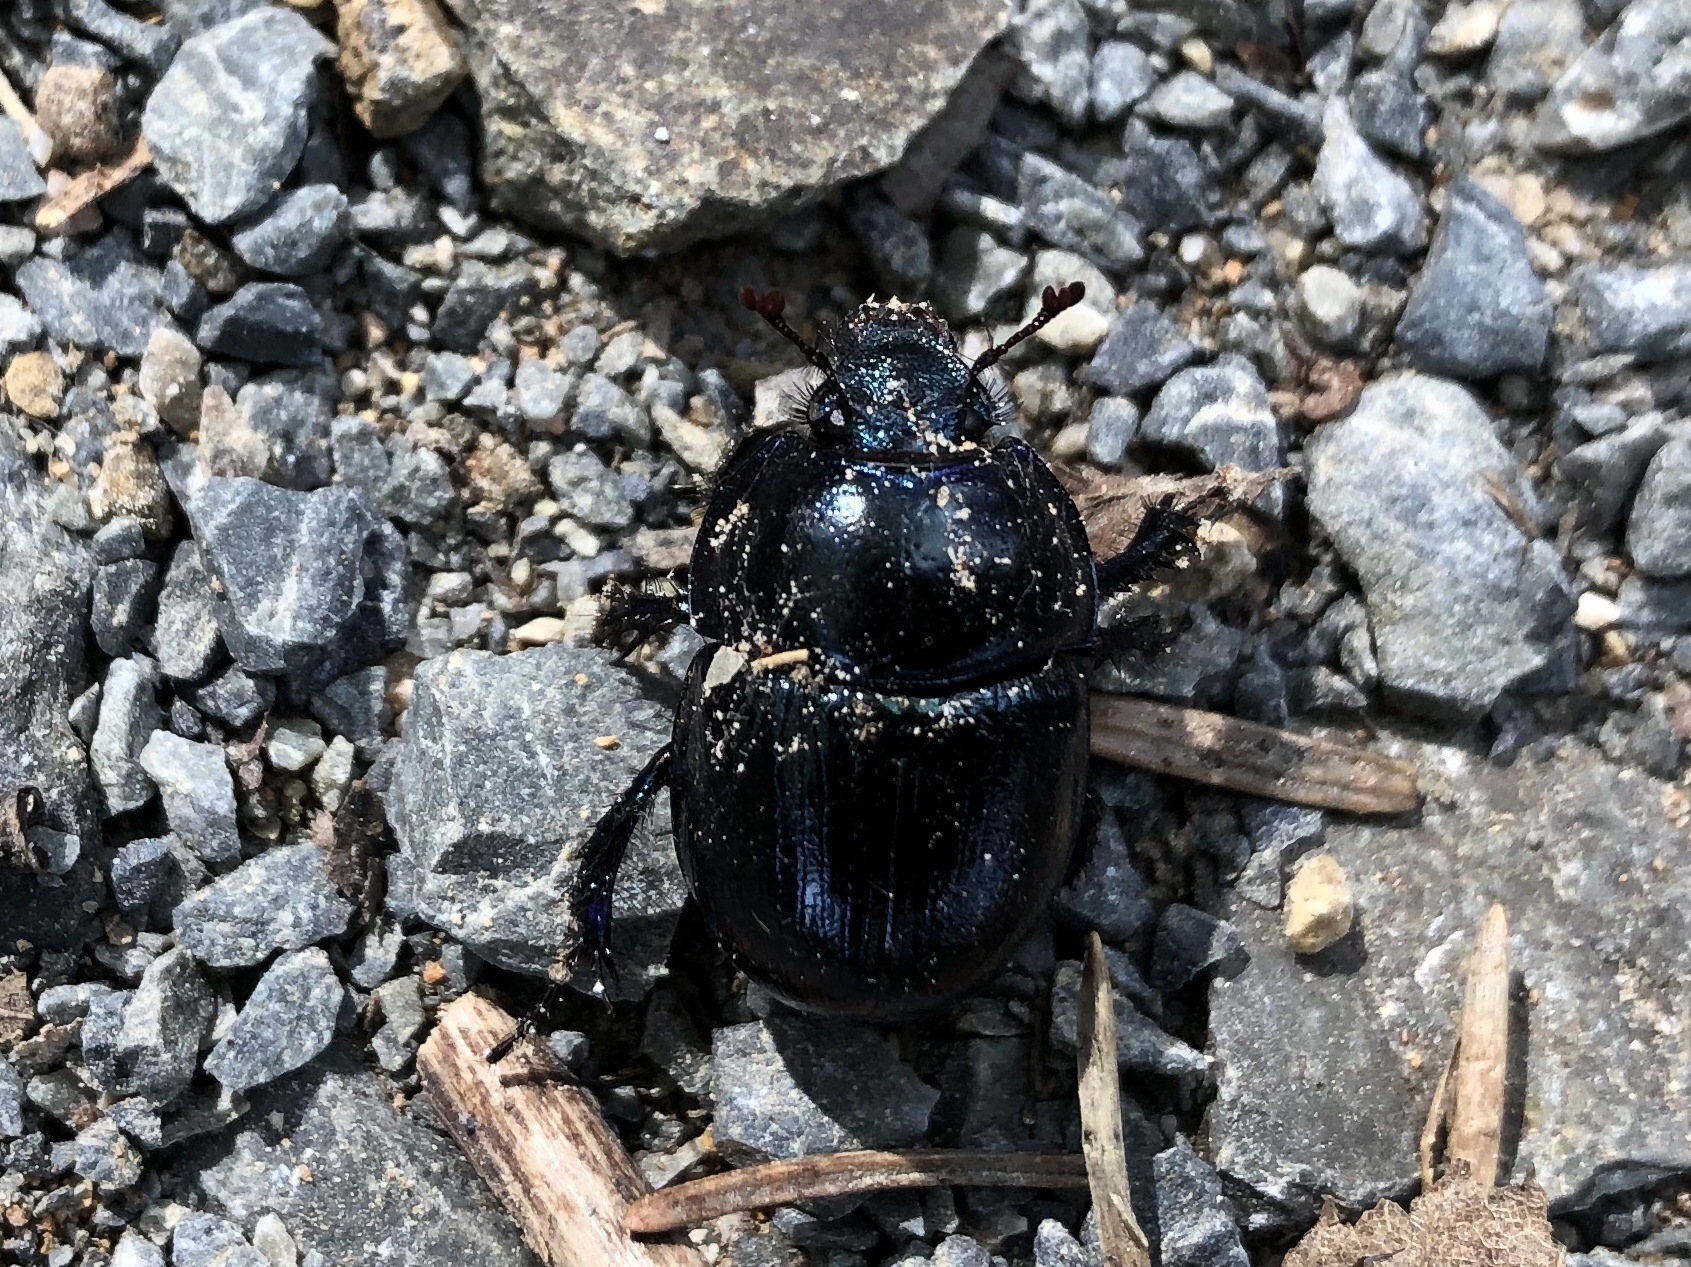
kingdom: Animalia
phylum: Arthropoda
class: Insecta
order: Coleoptera
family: Geotrupidae
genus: Anoplotrupes
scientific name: Anoplotrupes stercorosus
